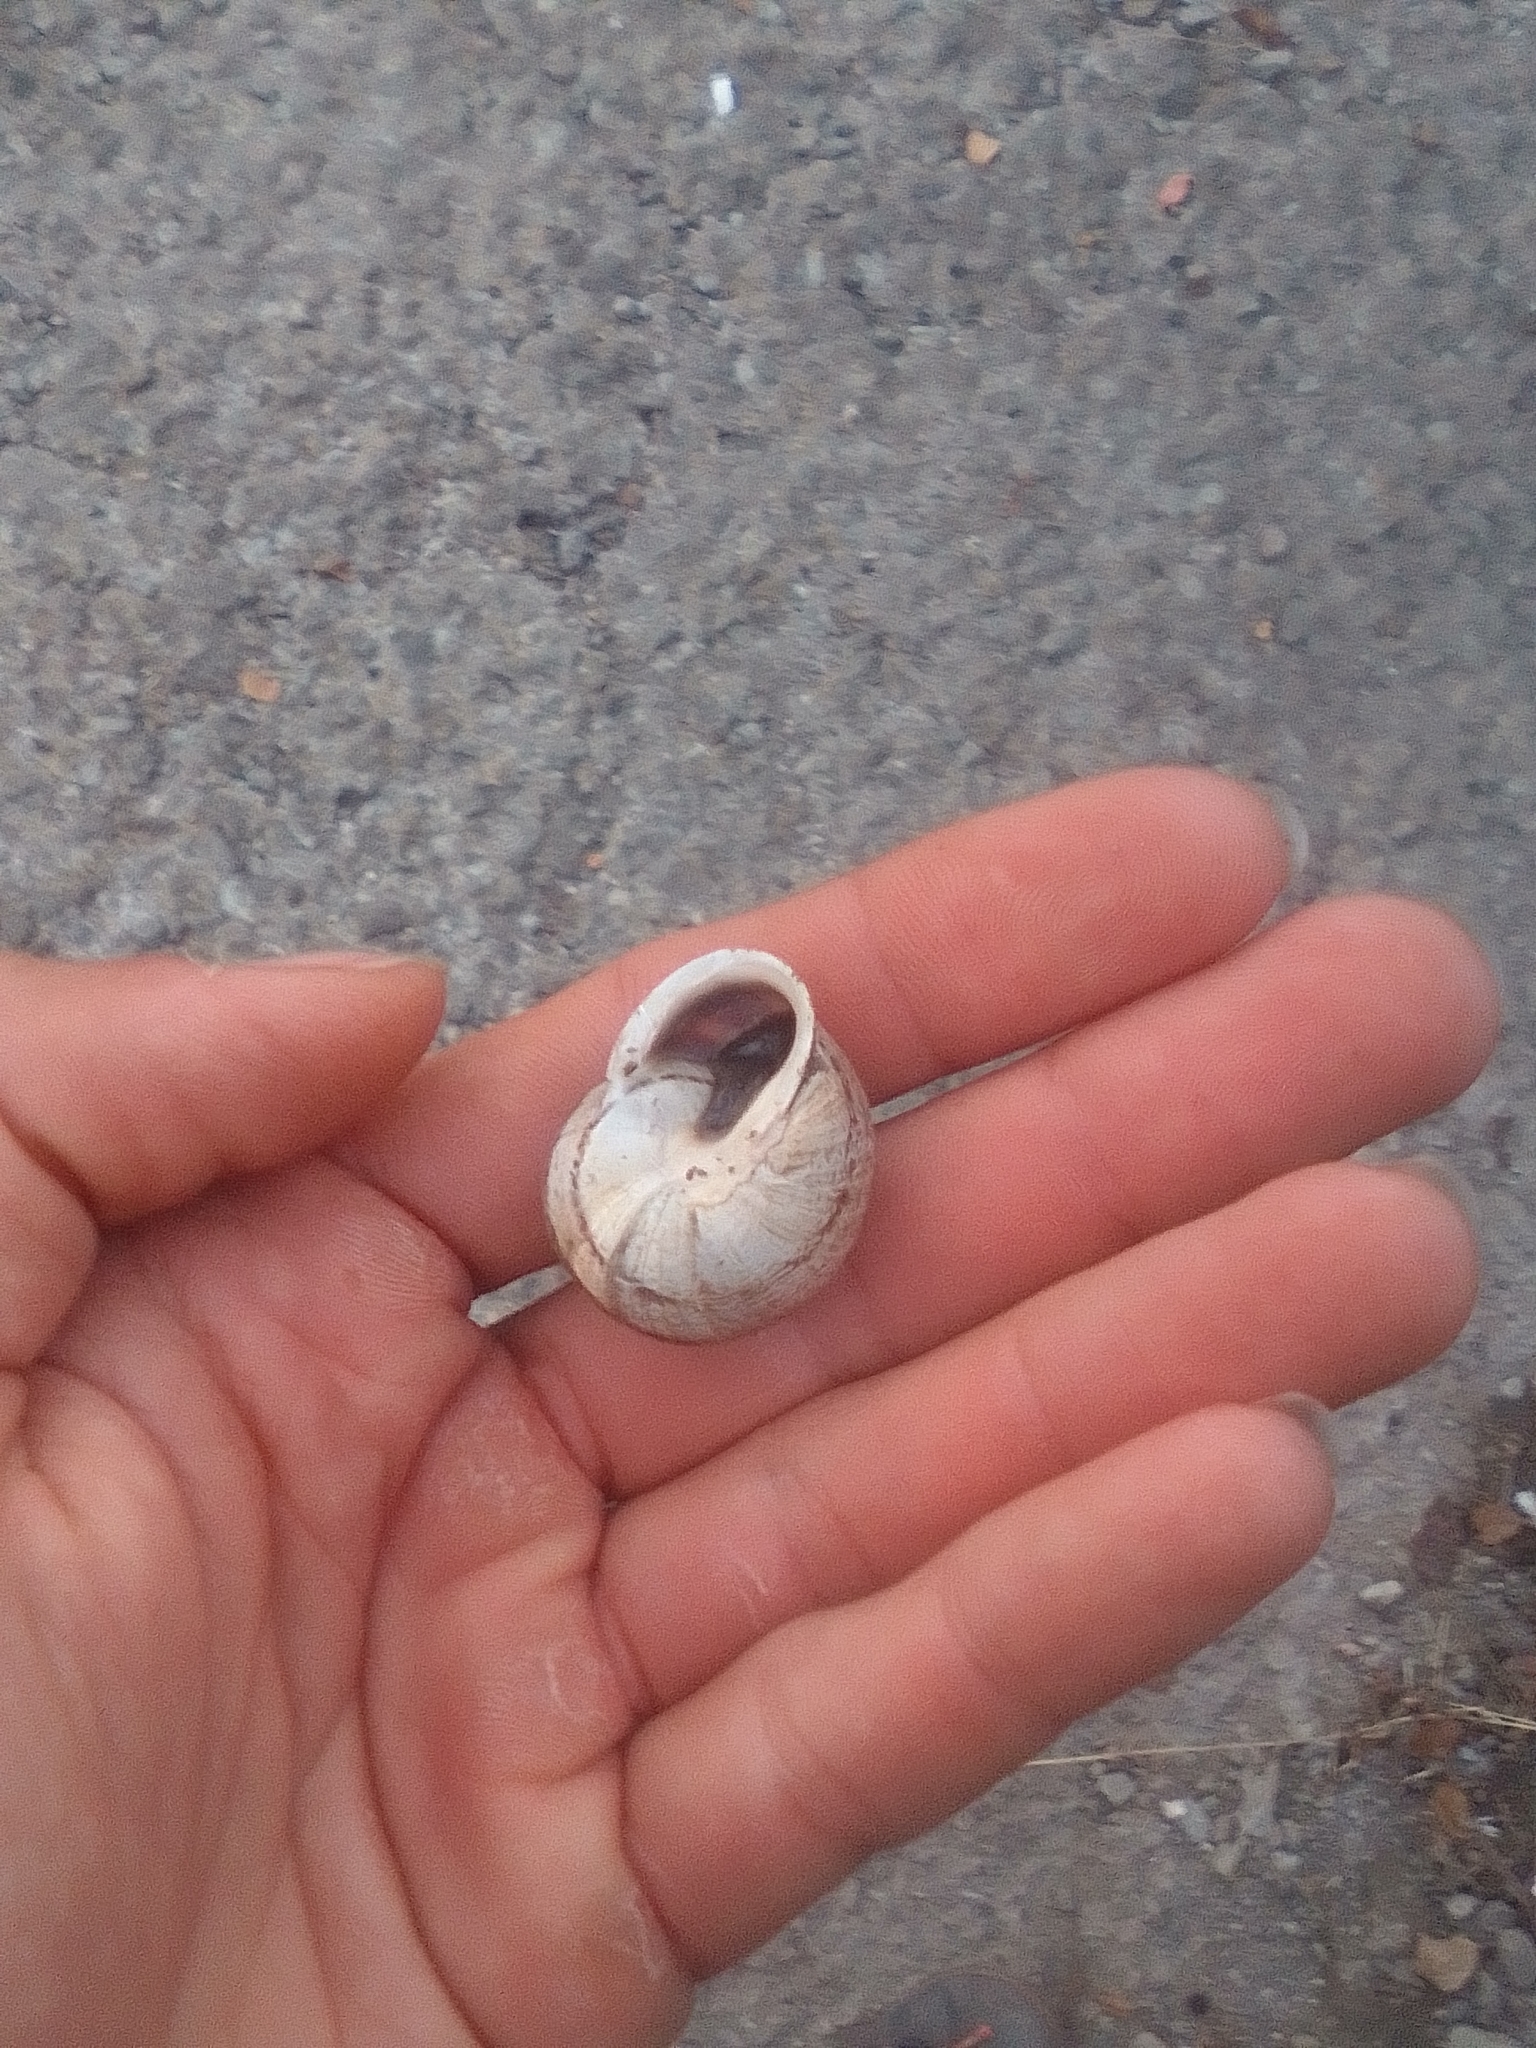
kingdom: Animalia
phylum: Mollusca
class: Gastropoda
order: Stylommatophora
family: Helicidae
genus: Eobania
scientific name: Eobania vermiculata
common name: Chocolateband snail
